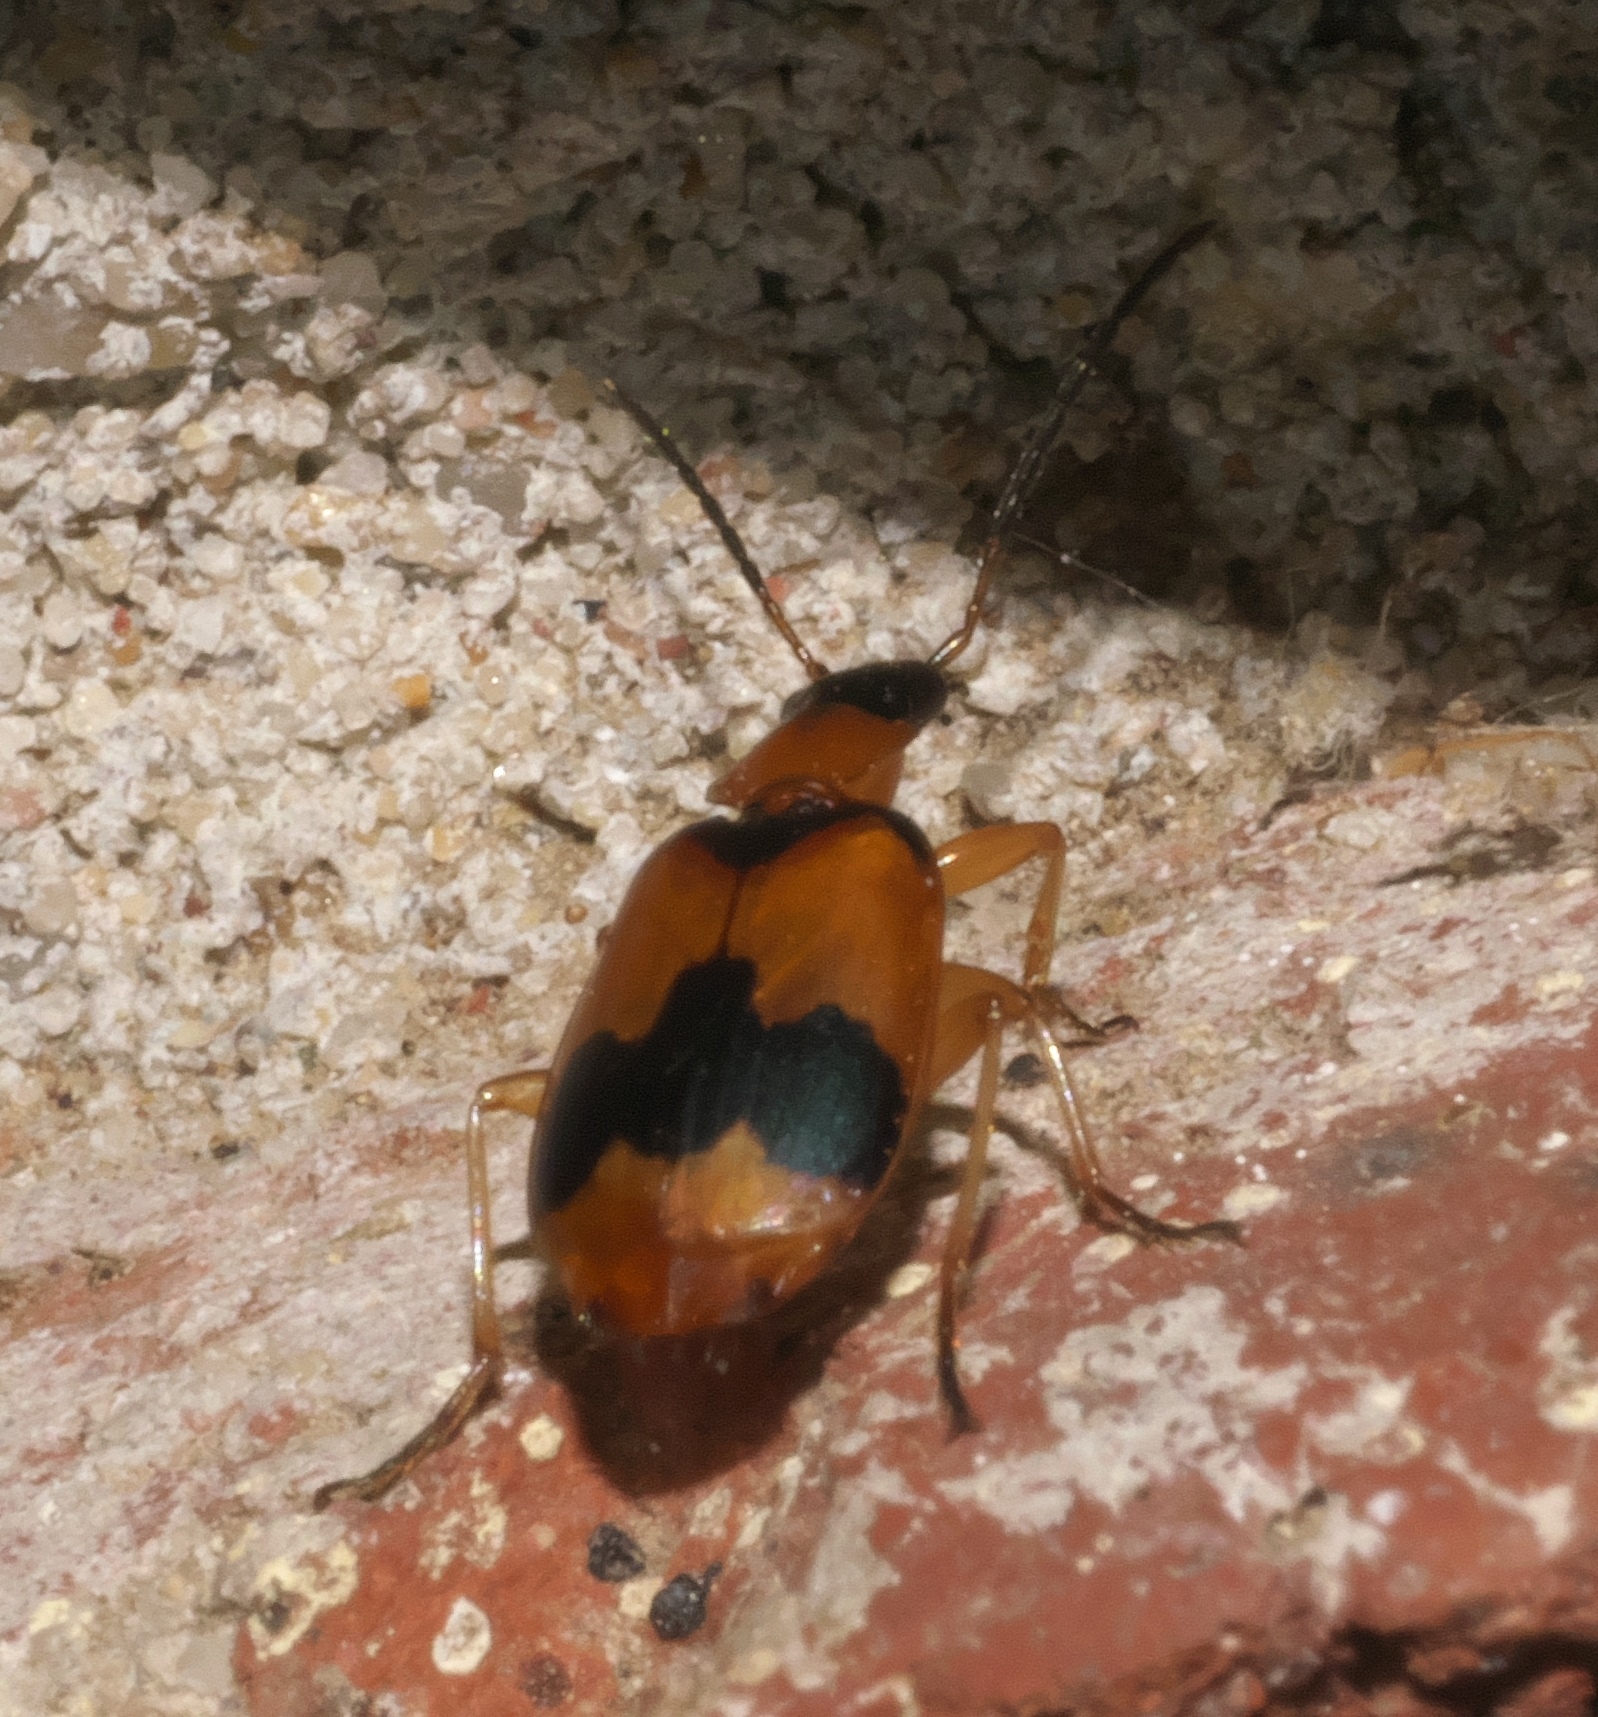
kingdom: Animalia
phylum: Arthropoda
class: Insecta
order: Coleoptera
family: Carabidae
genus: Lebia
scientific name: Lebia pulchella
